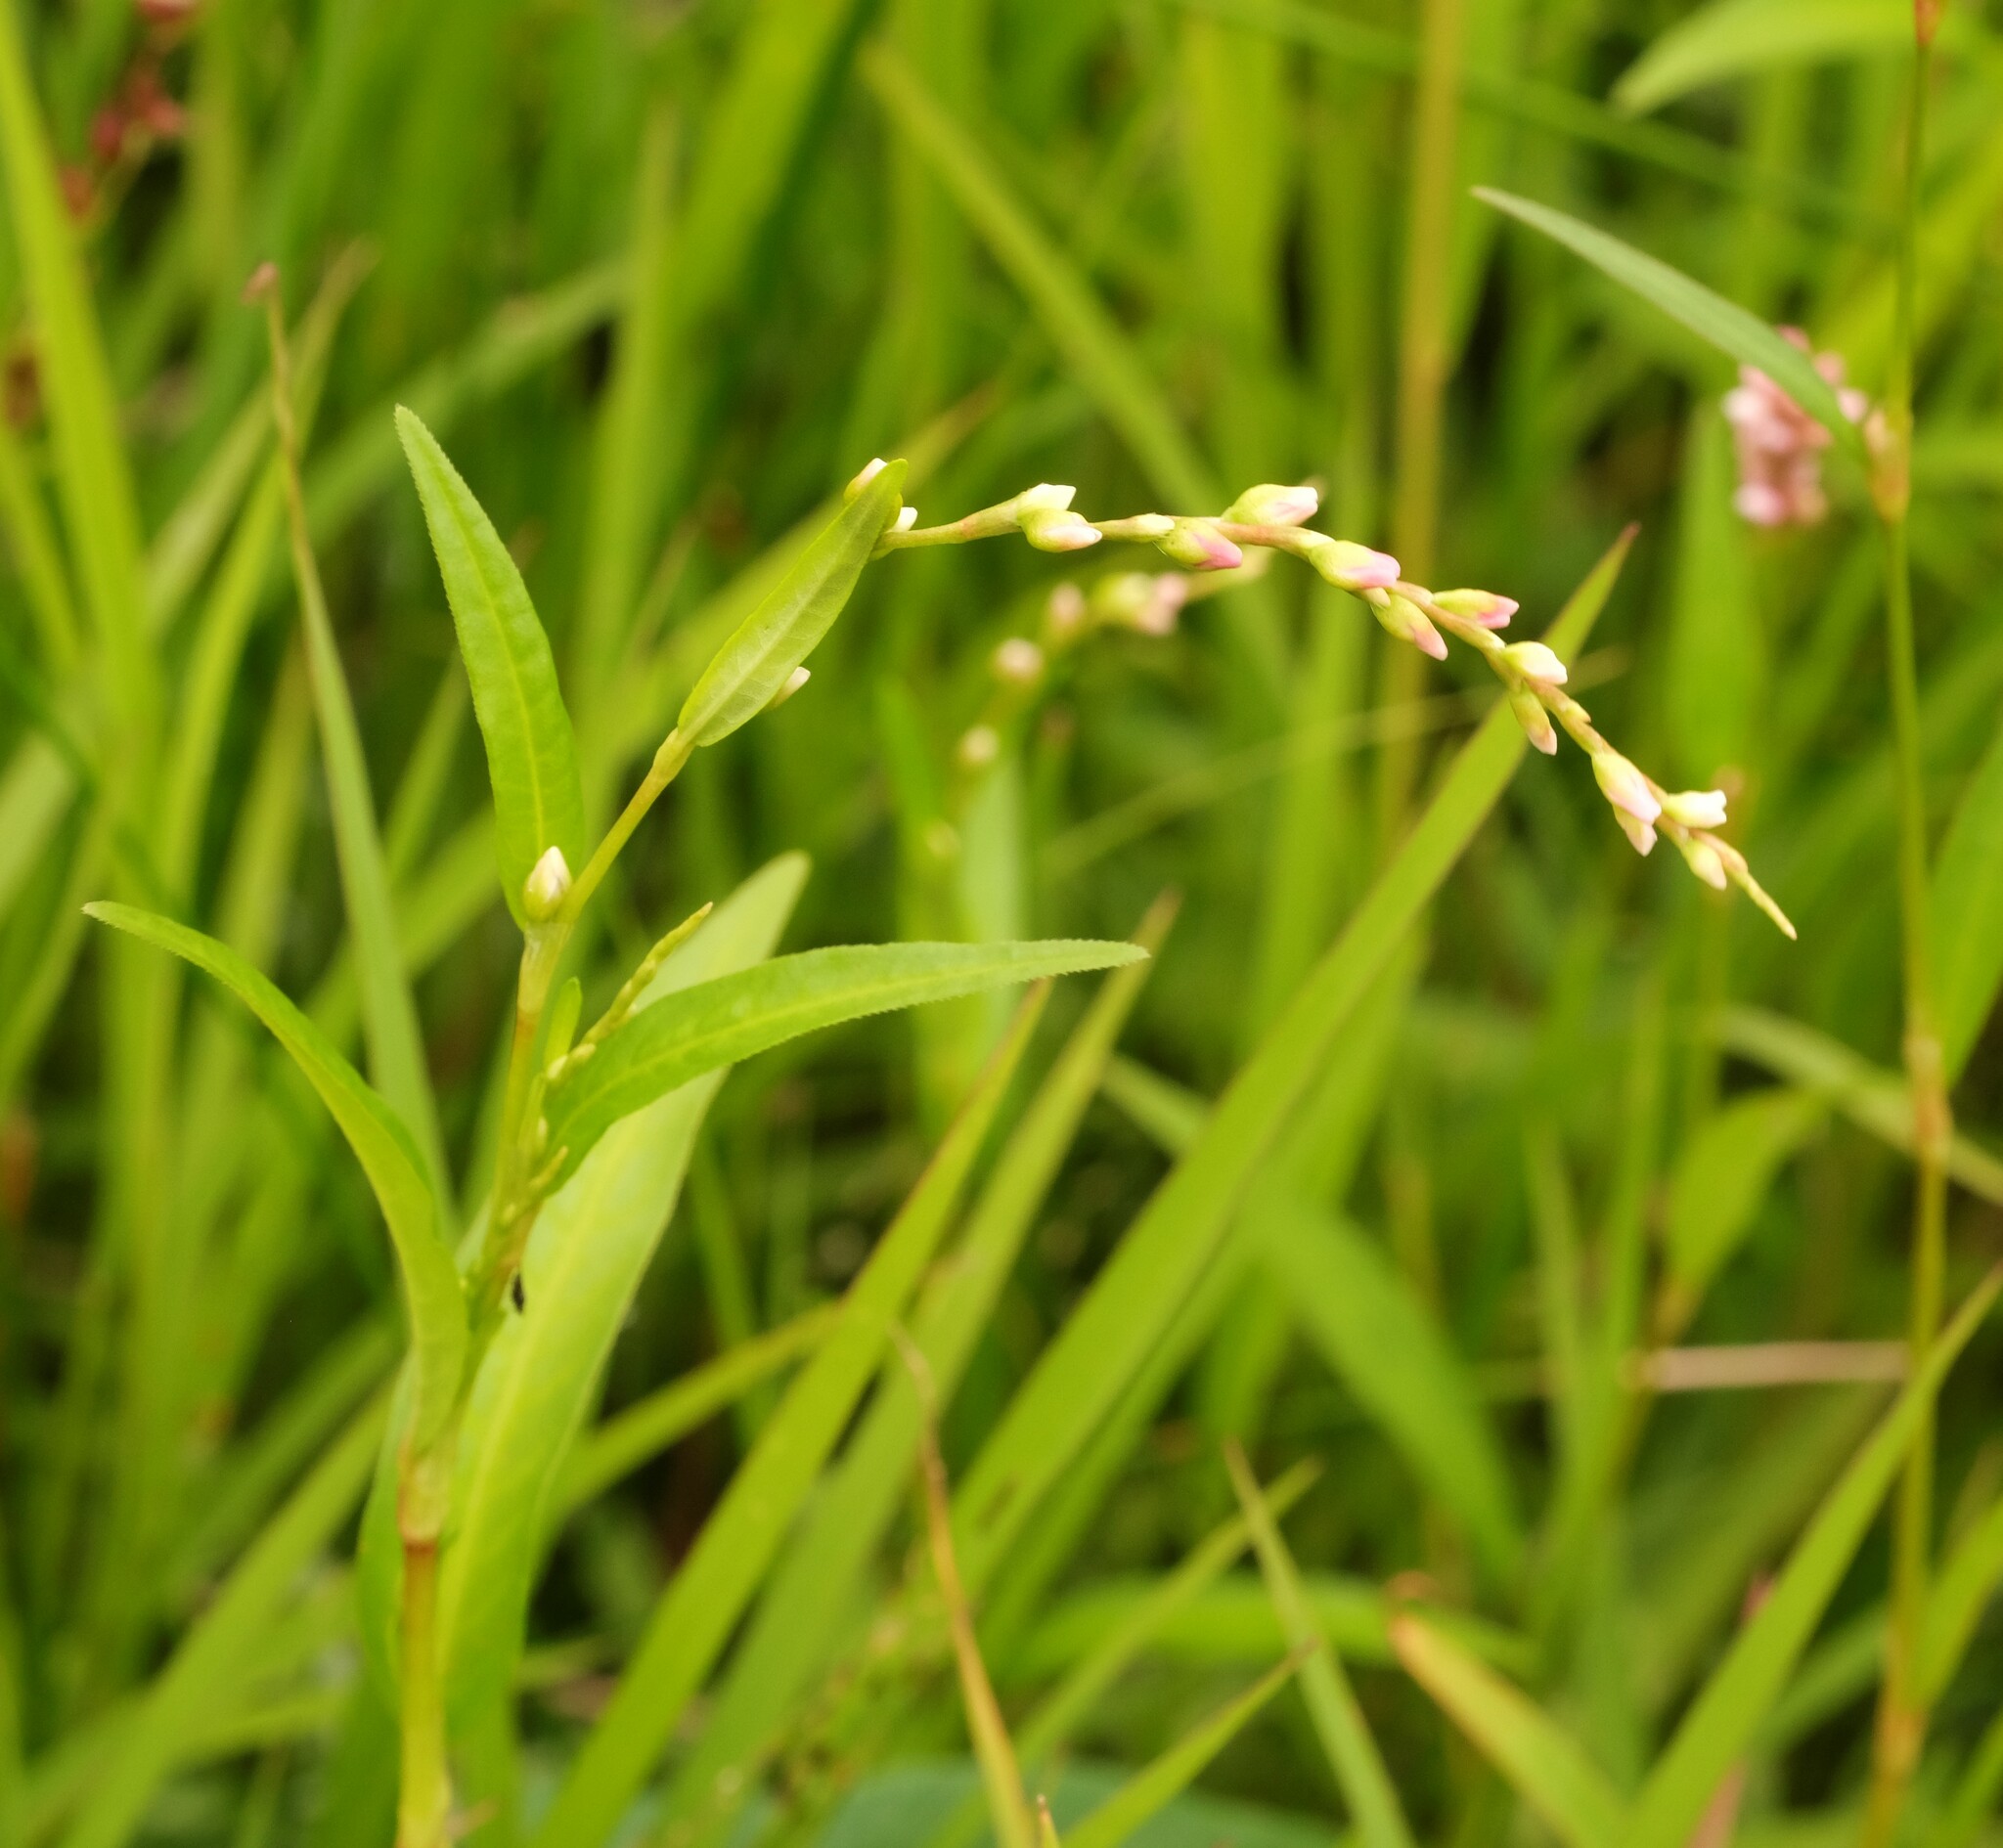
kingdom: Plantae
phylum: Tracheophyta
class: Magnoliopsida
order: Caryophyllales
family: Polygonaceae
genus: Persicaria
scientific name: Persicaria hydropiper
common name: Water-pepper
